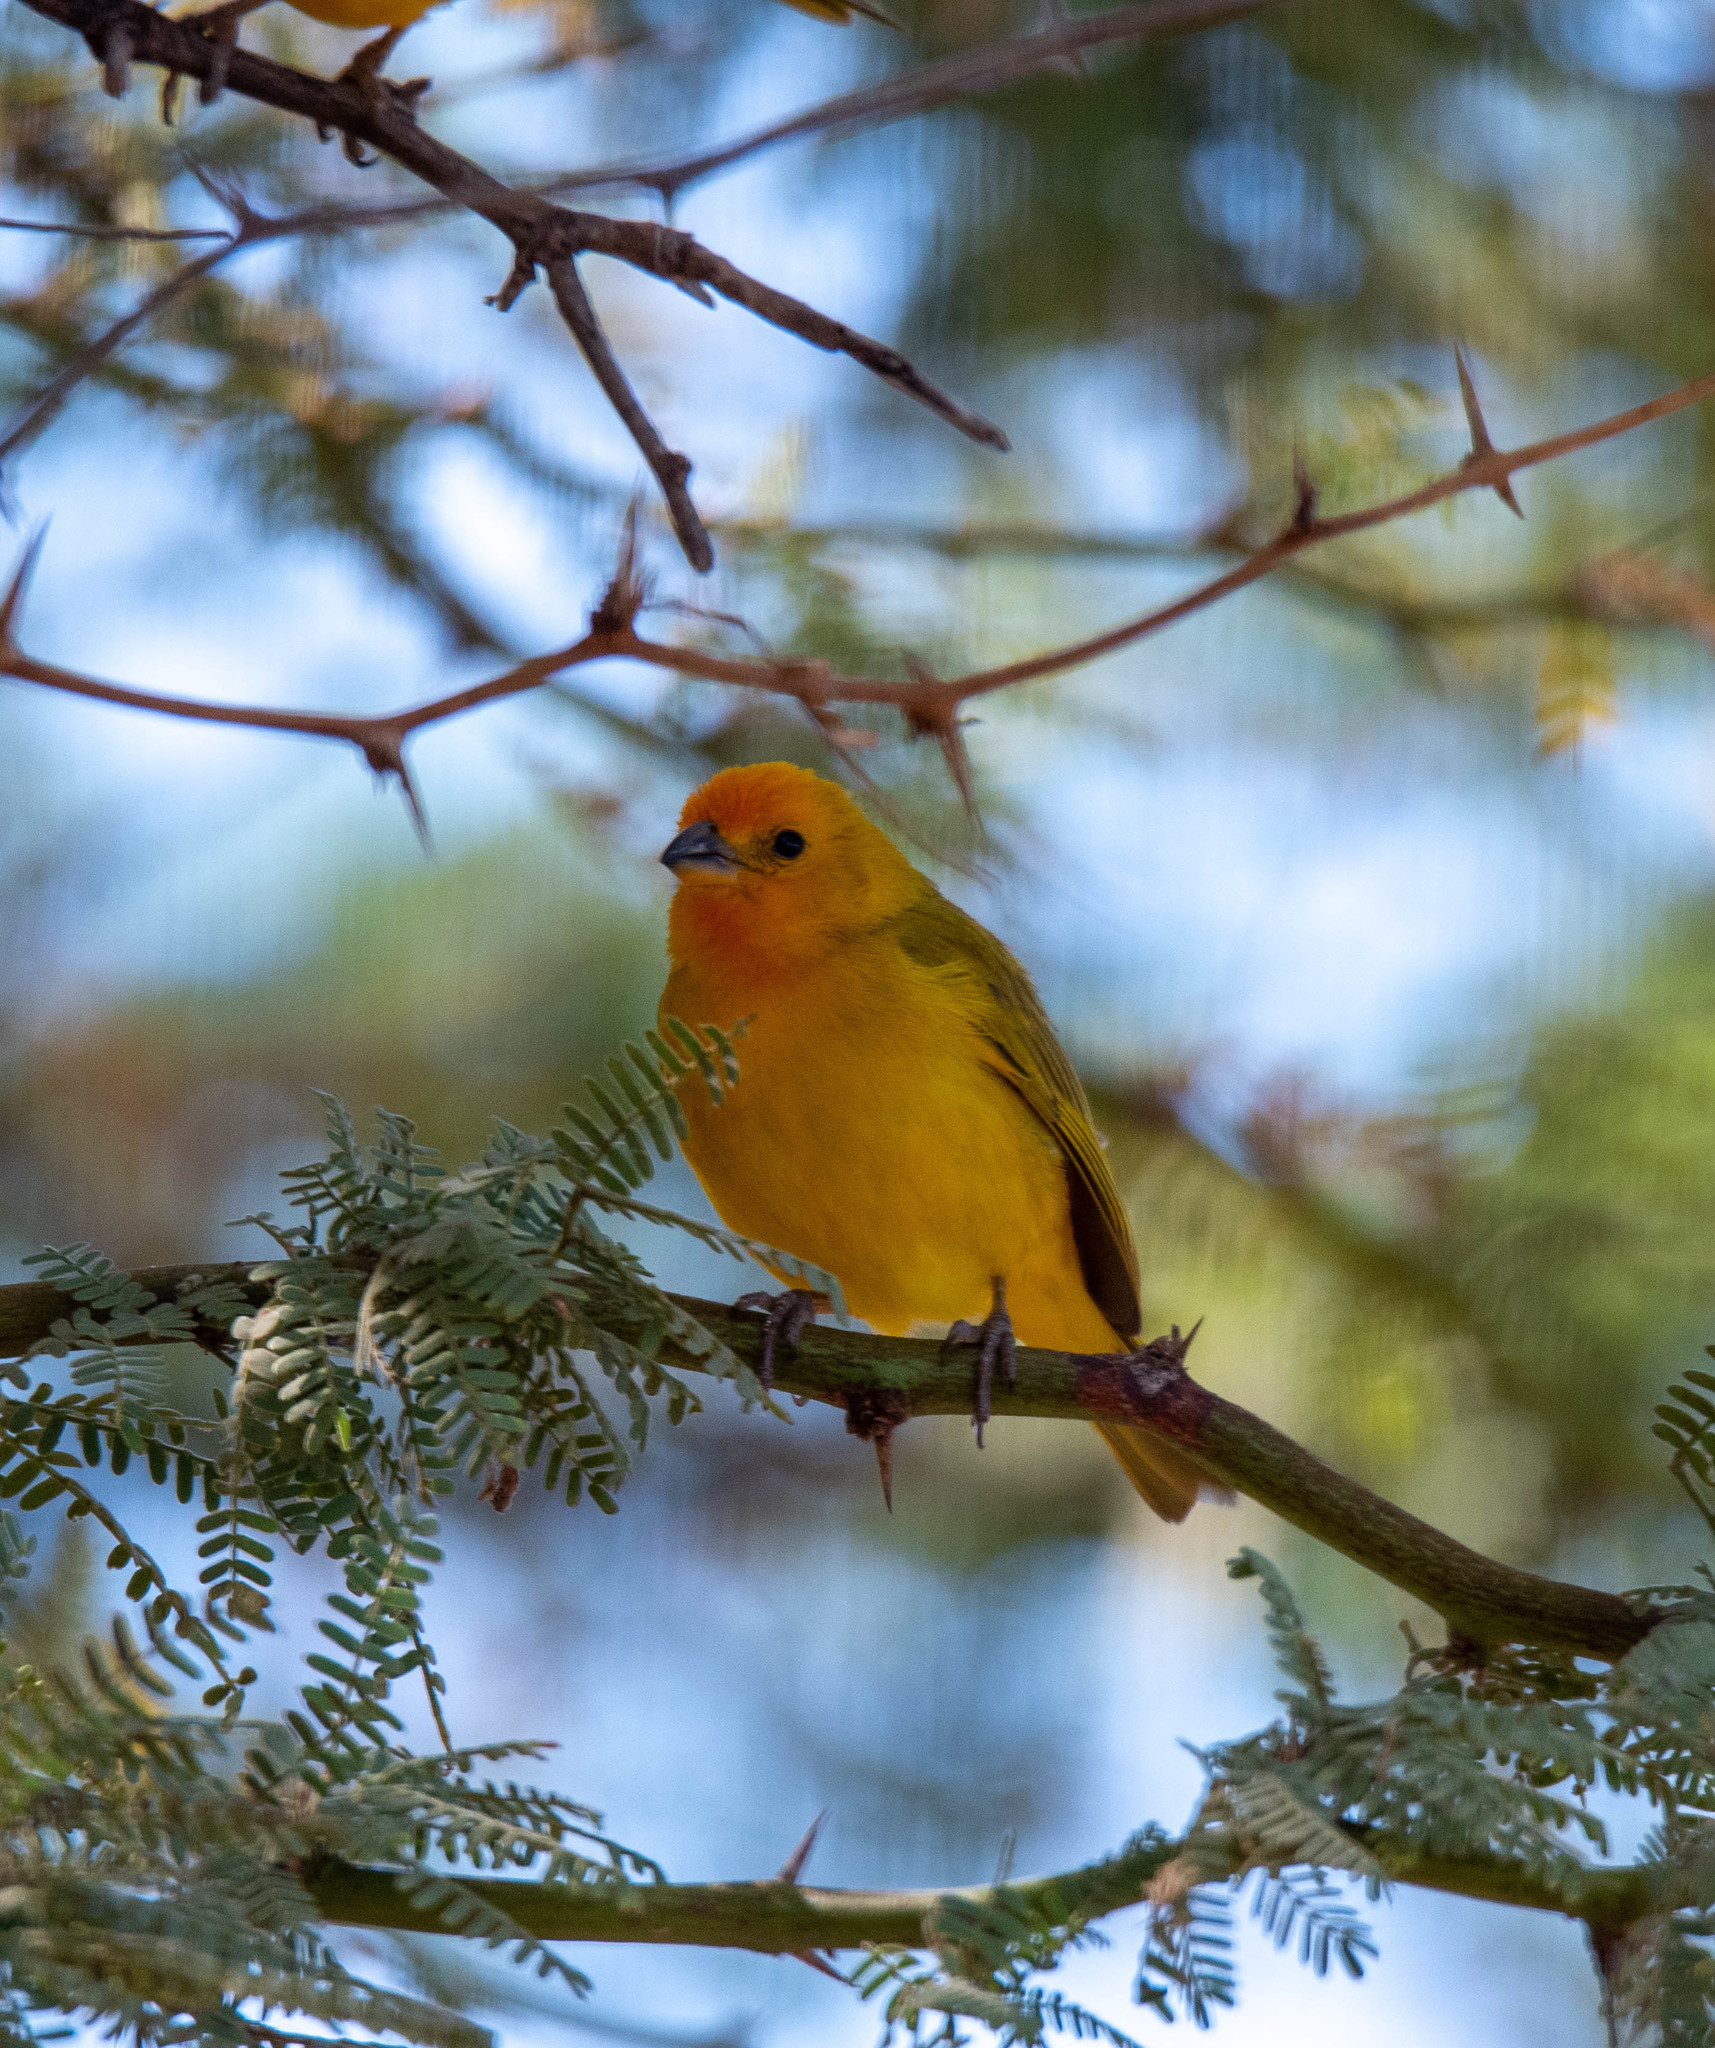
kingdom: Animalia
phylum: Chordata
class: Aves
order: Passeriformes
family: Thraupidae
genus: Sicalis
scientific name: Sicalis flaveola
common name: Saffron finch
